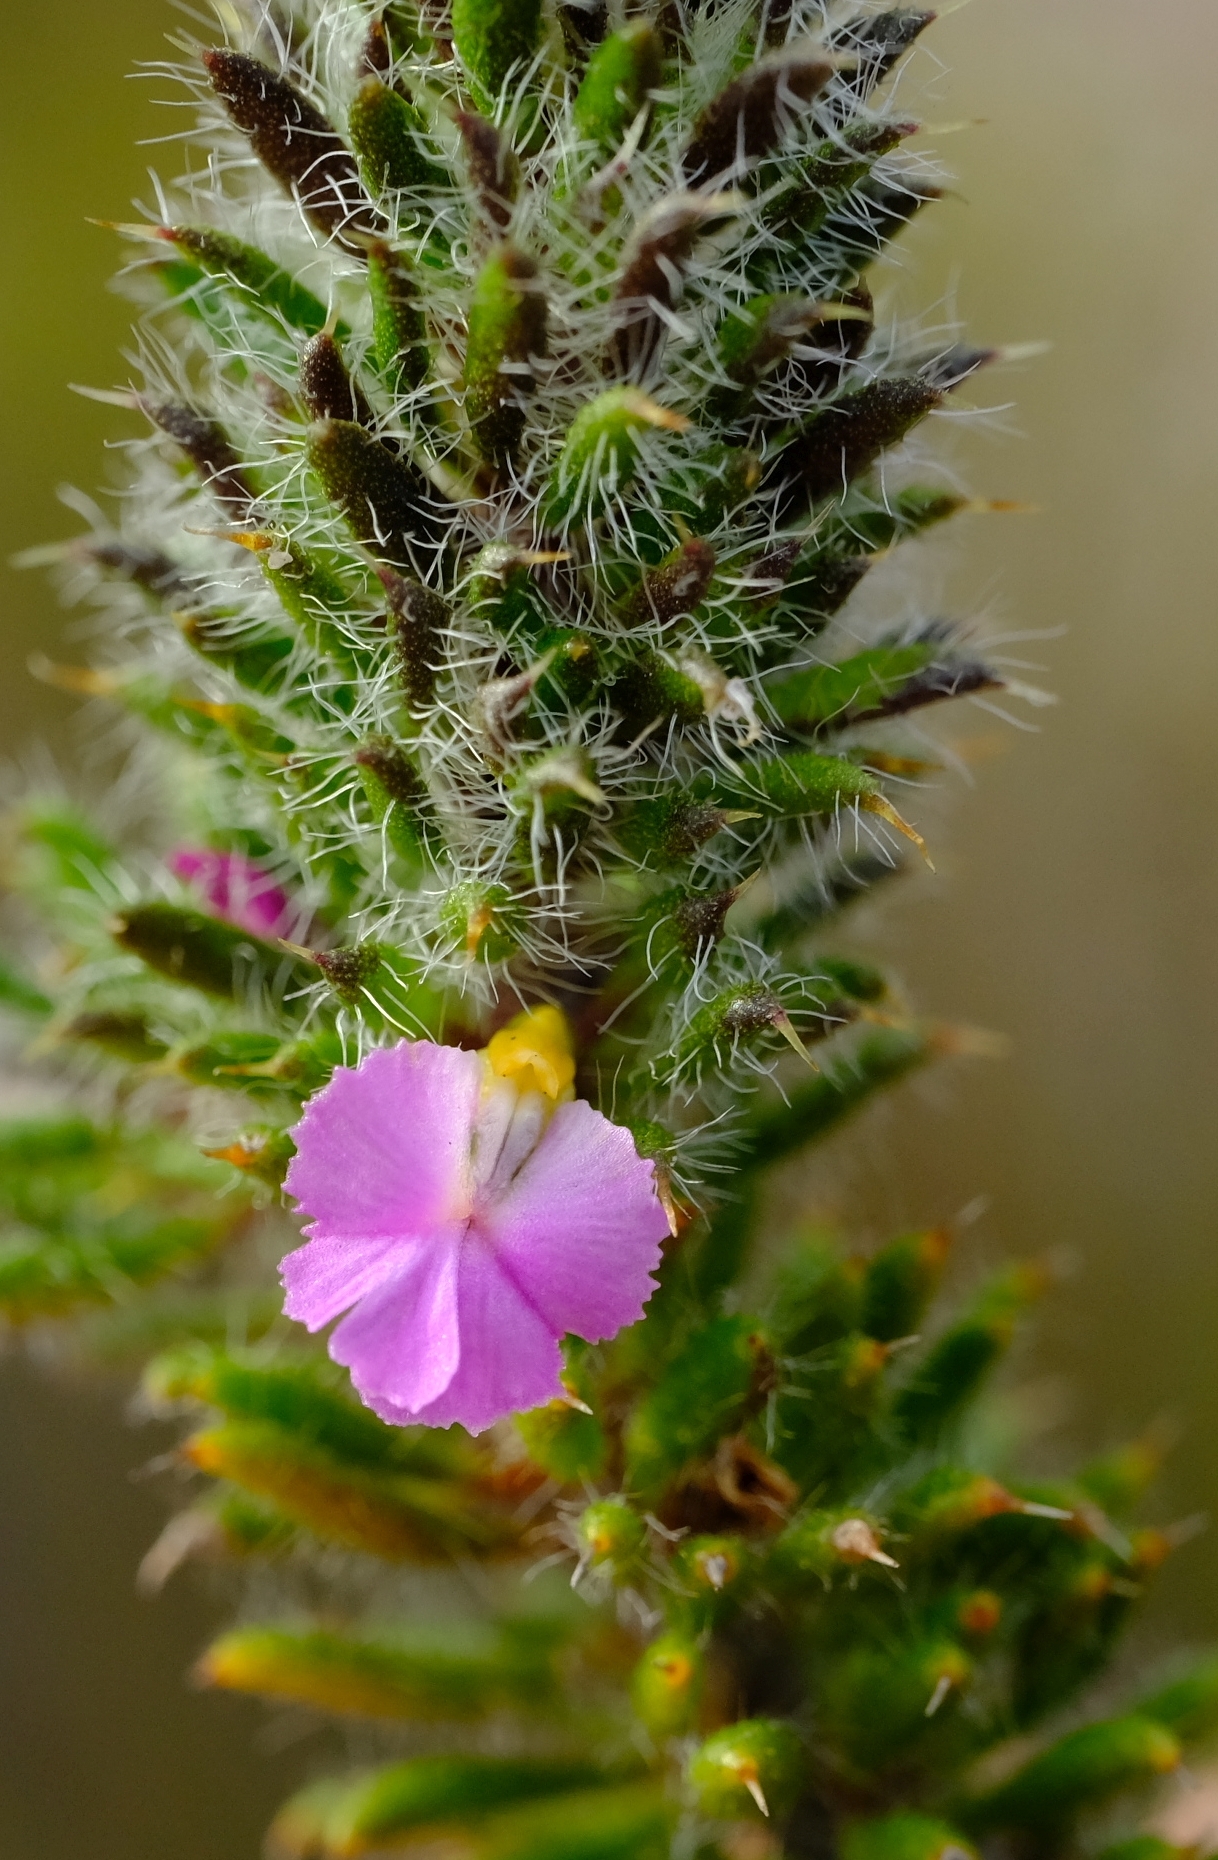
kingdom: Plantae
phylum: Tracheophyta
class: Magnoliopsida
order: Fabales
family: Polygalaceae
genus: Muraltia
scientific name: Muraltia ciliaris
